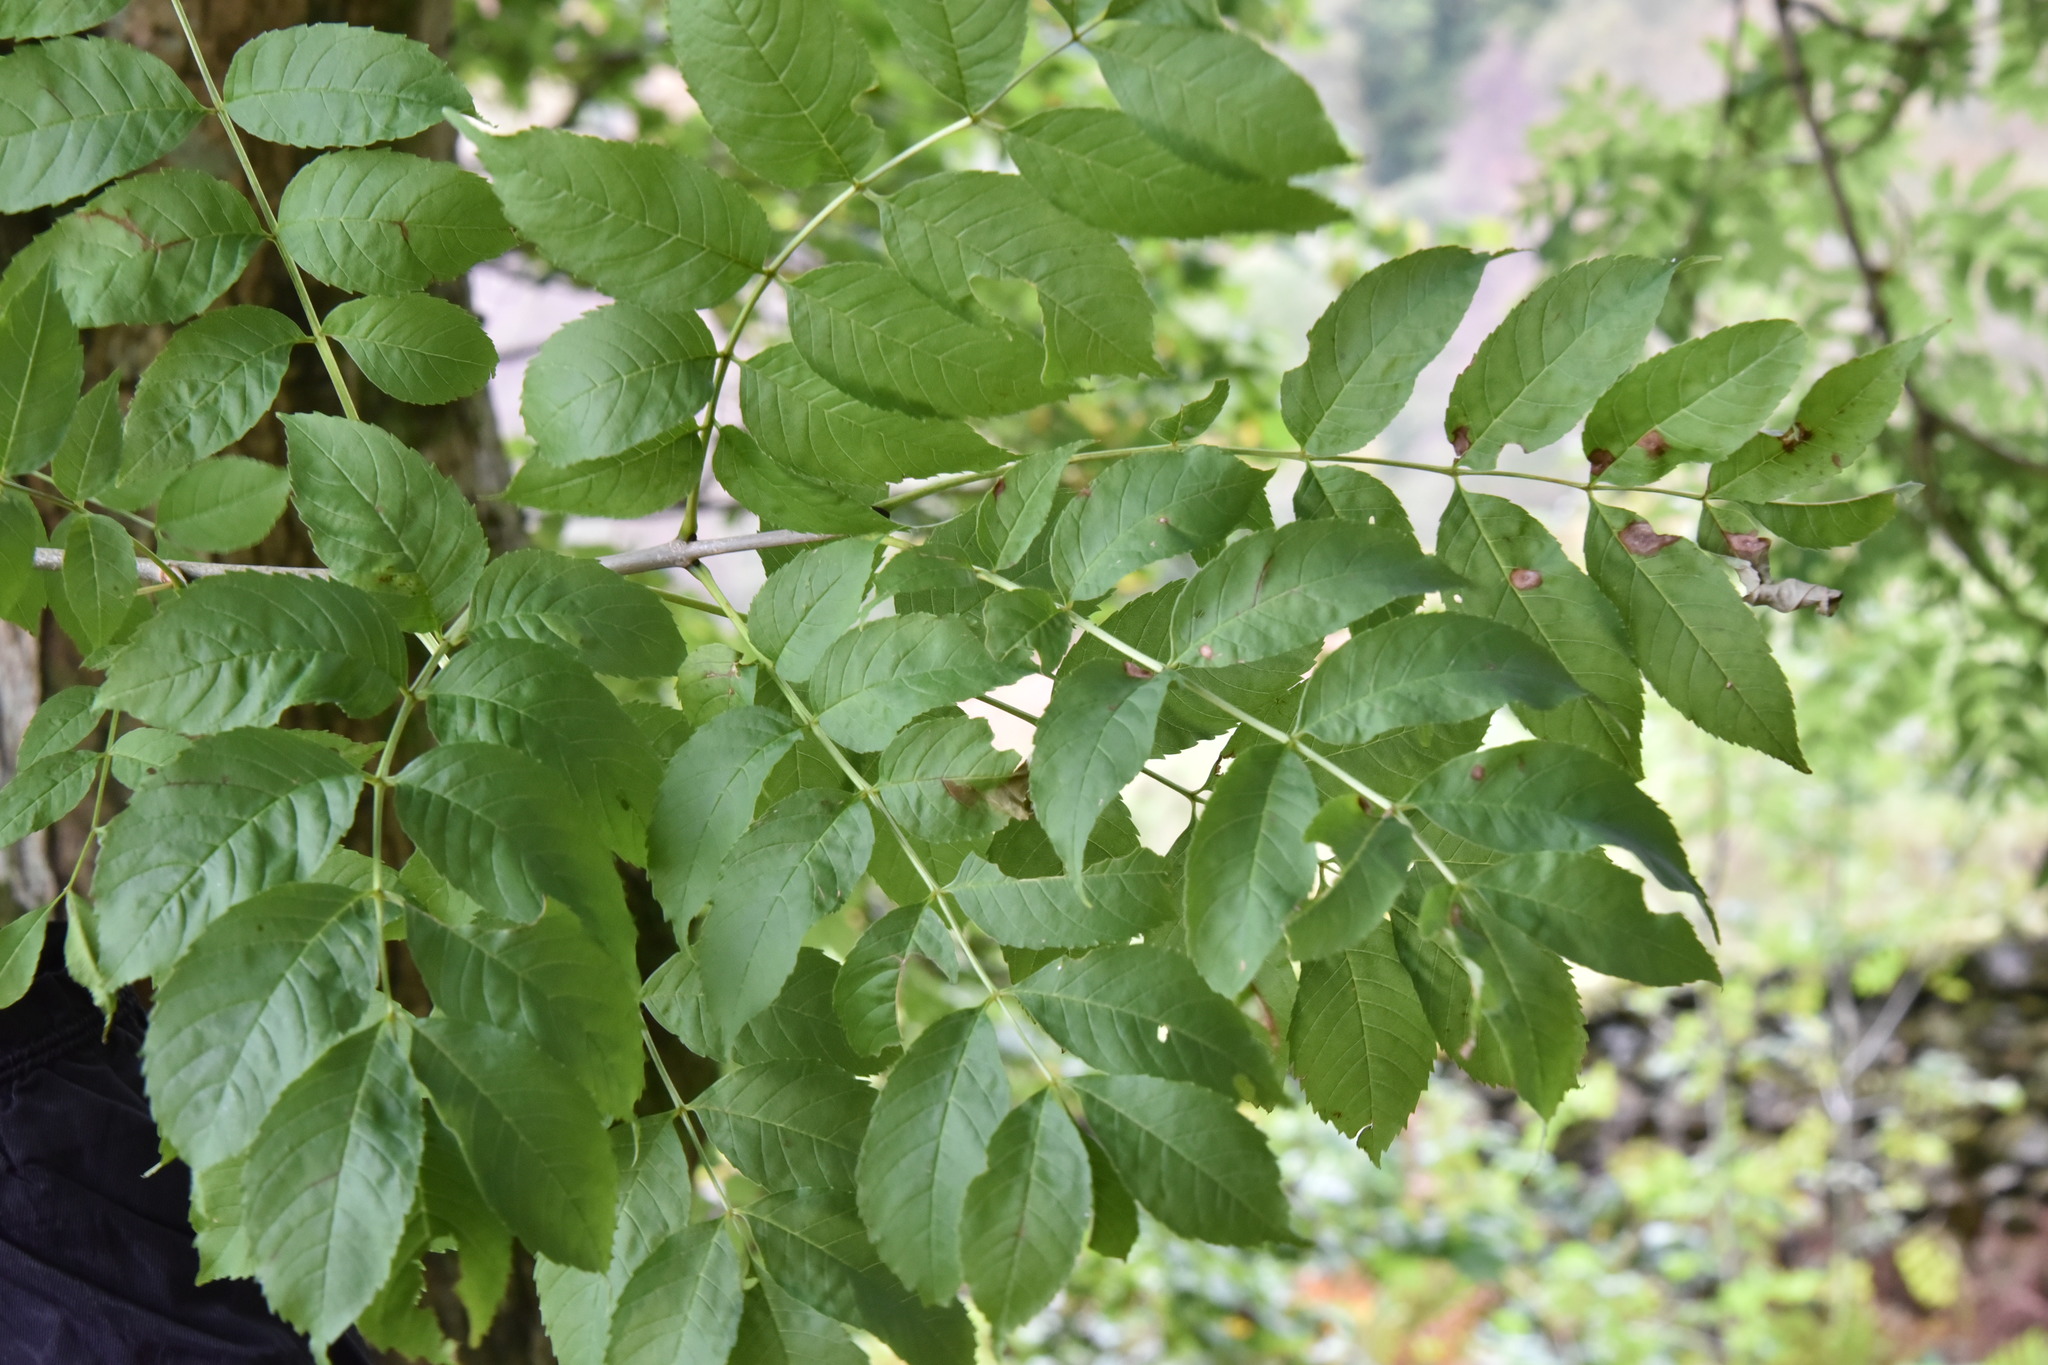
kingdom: Plantae
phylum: Tracheophyta
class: Magnoliopsida
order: Lamiales
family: Oleaceae
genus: Fraxinus
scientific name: Fraxinus excelsior
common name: European ash
